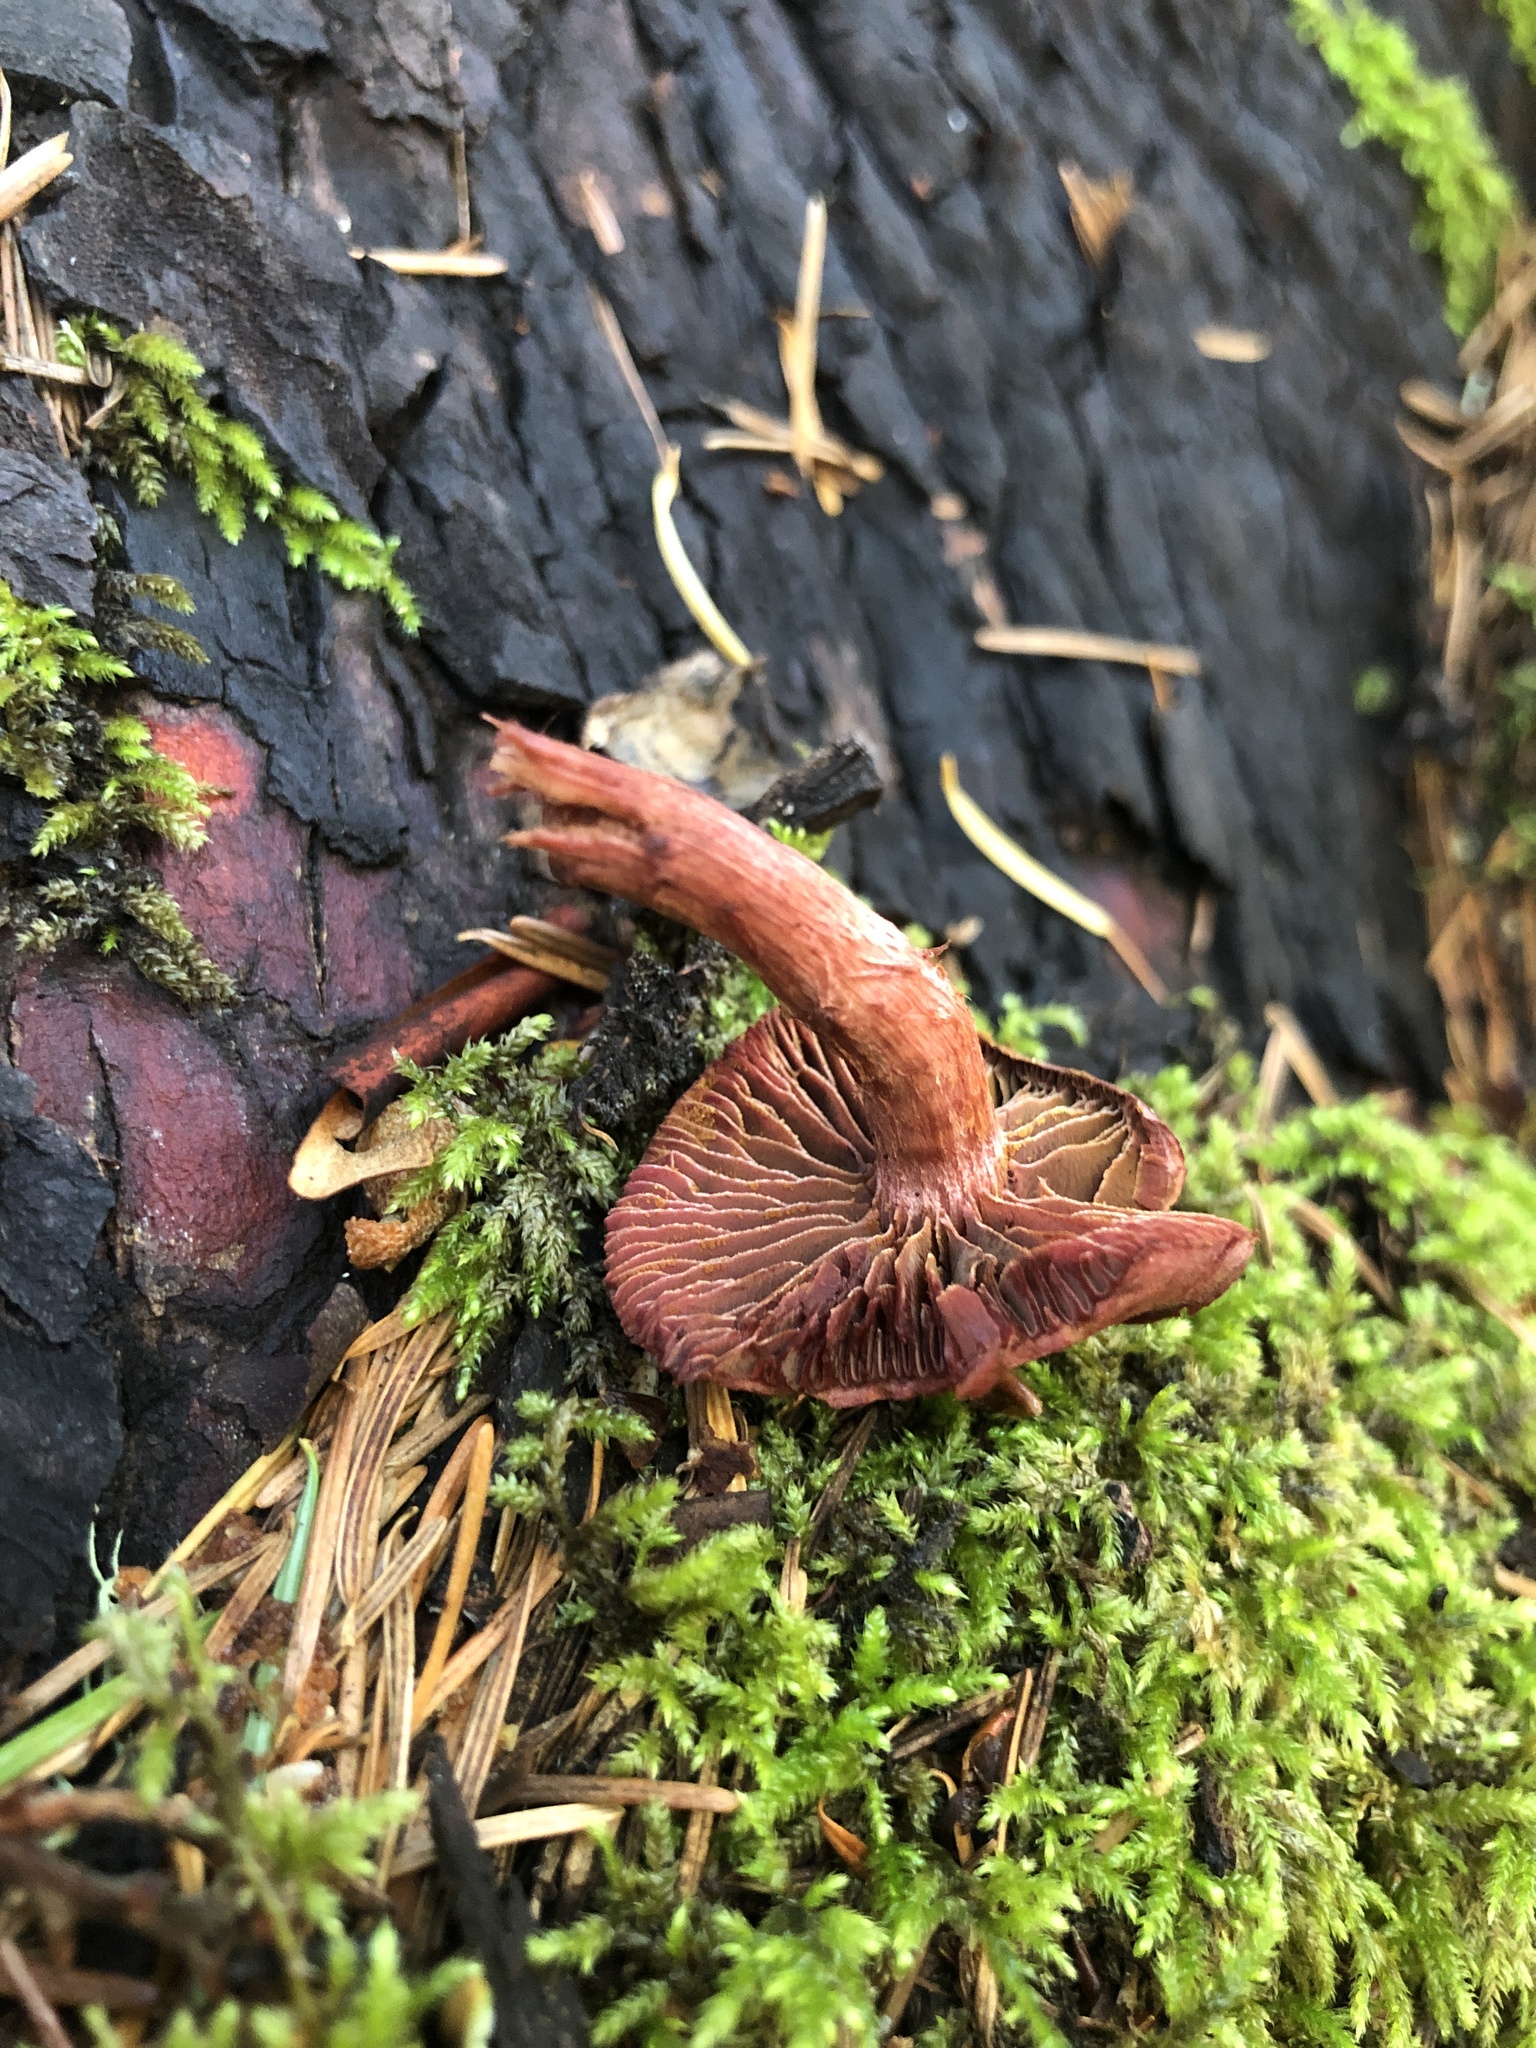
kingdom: Fungi
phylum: Basidiomycota
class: Agaricomycetes
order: Agaricales
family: Tubariaceae
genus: Tubaria
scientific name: Tubaria punicea
